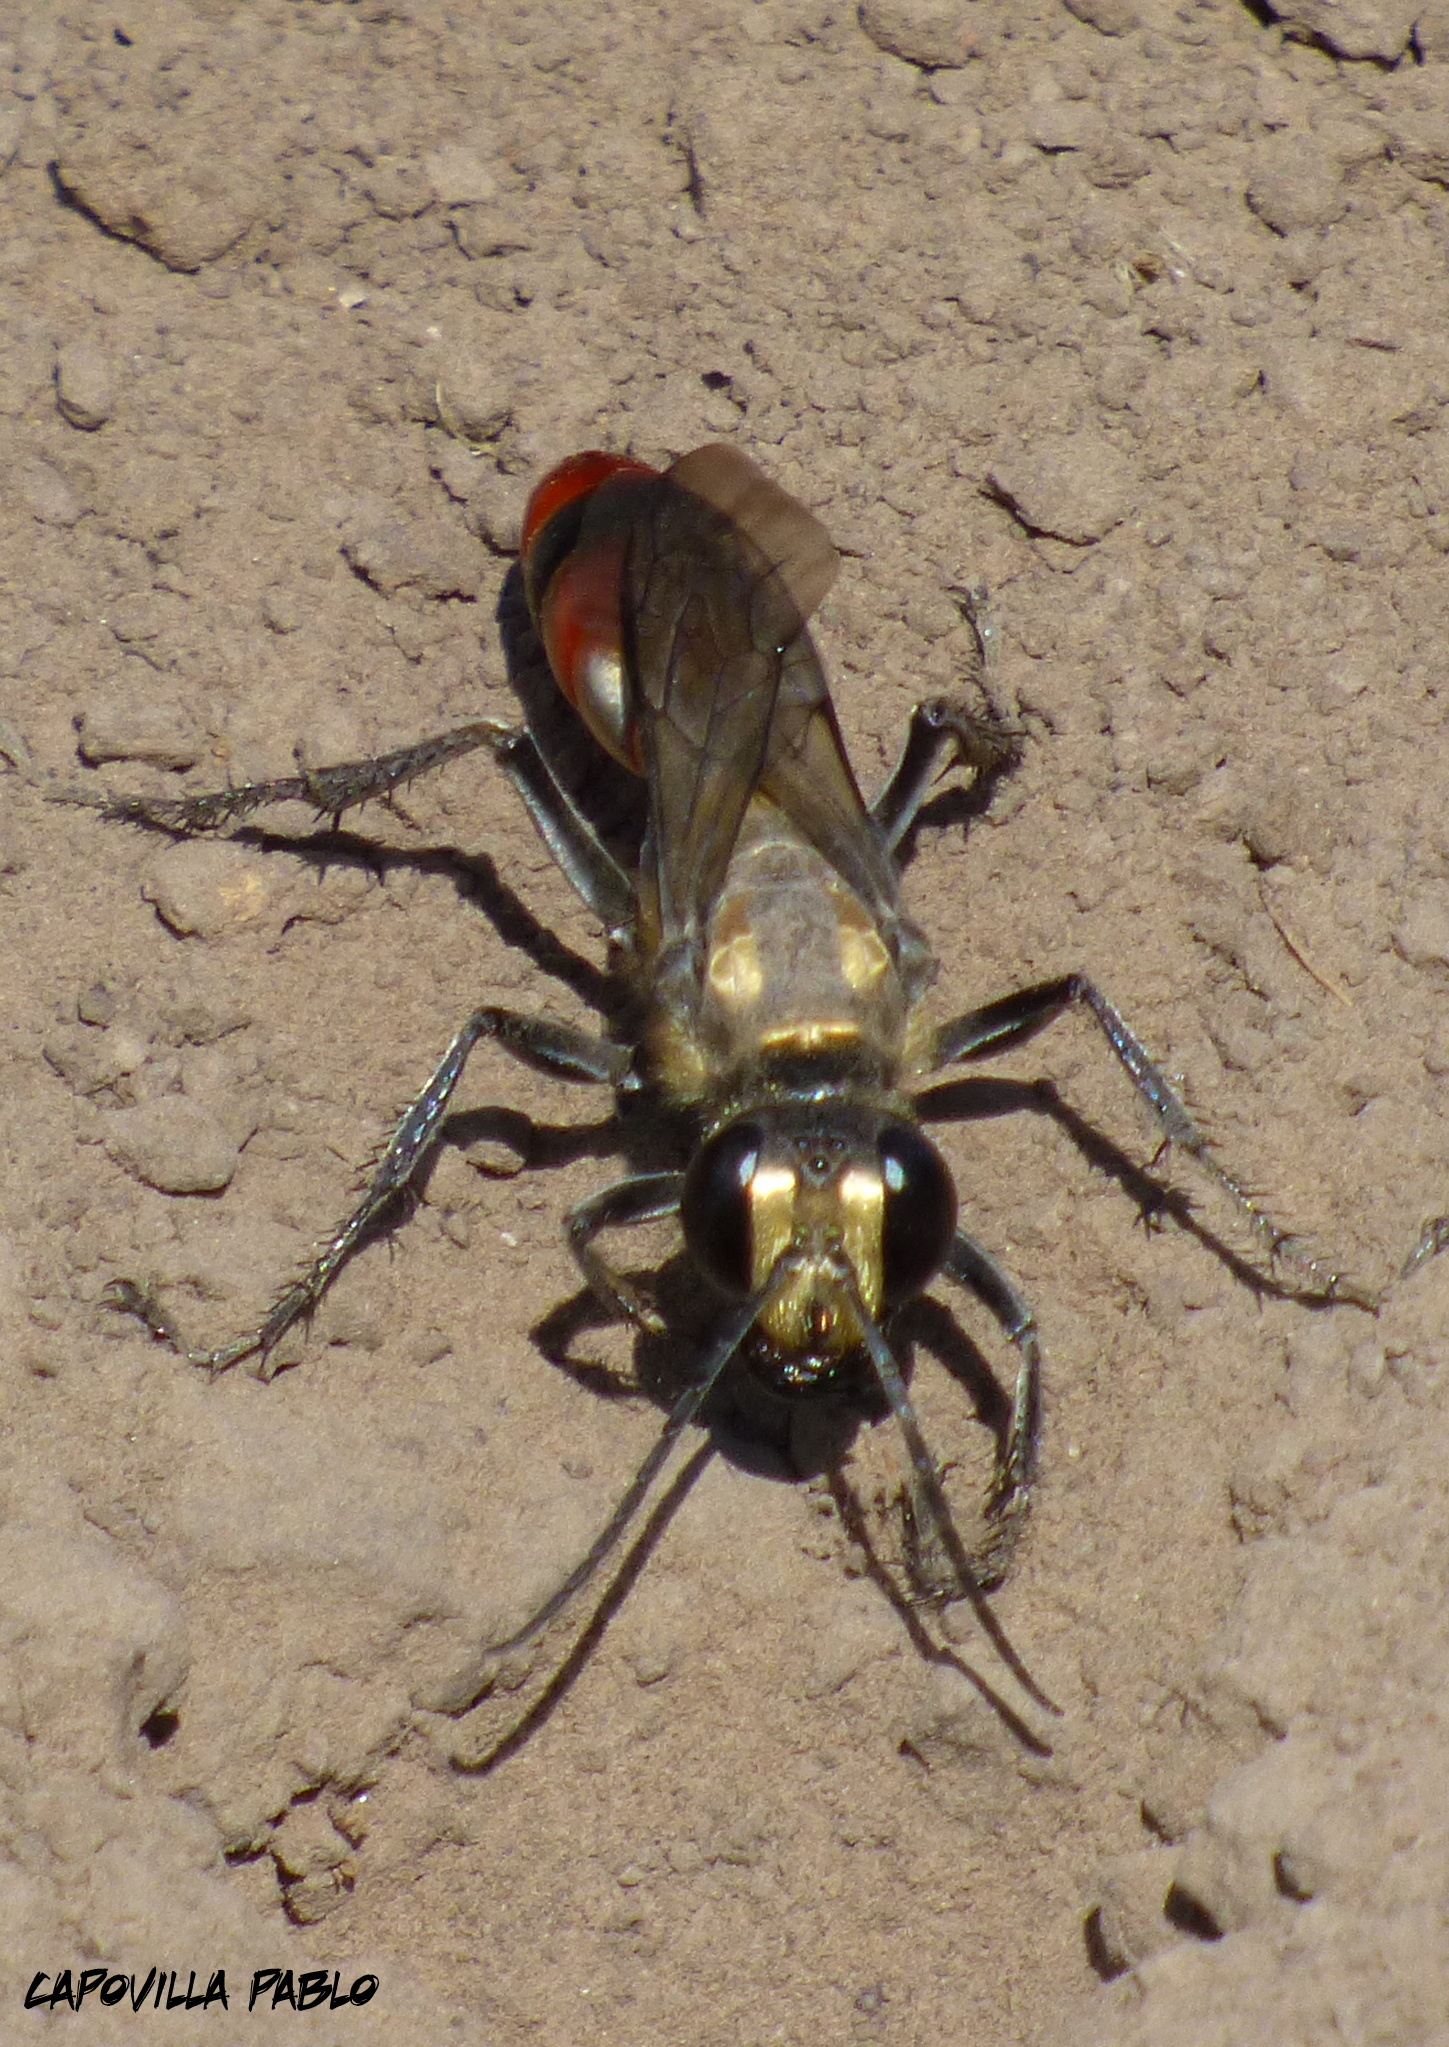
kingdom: Animalia
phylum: Arthropoda
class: Insecta
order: Hymenoptera
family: Sphecidae
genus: Sphex
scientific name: Sphex argentinus
